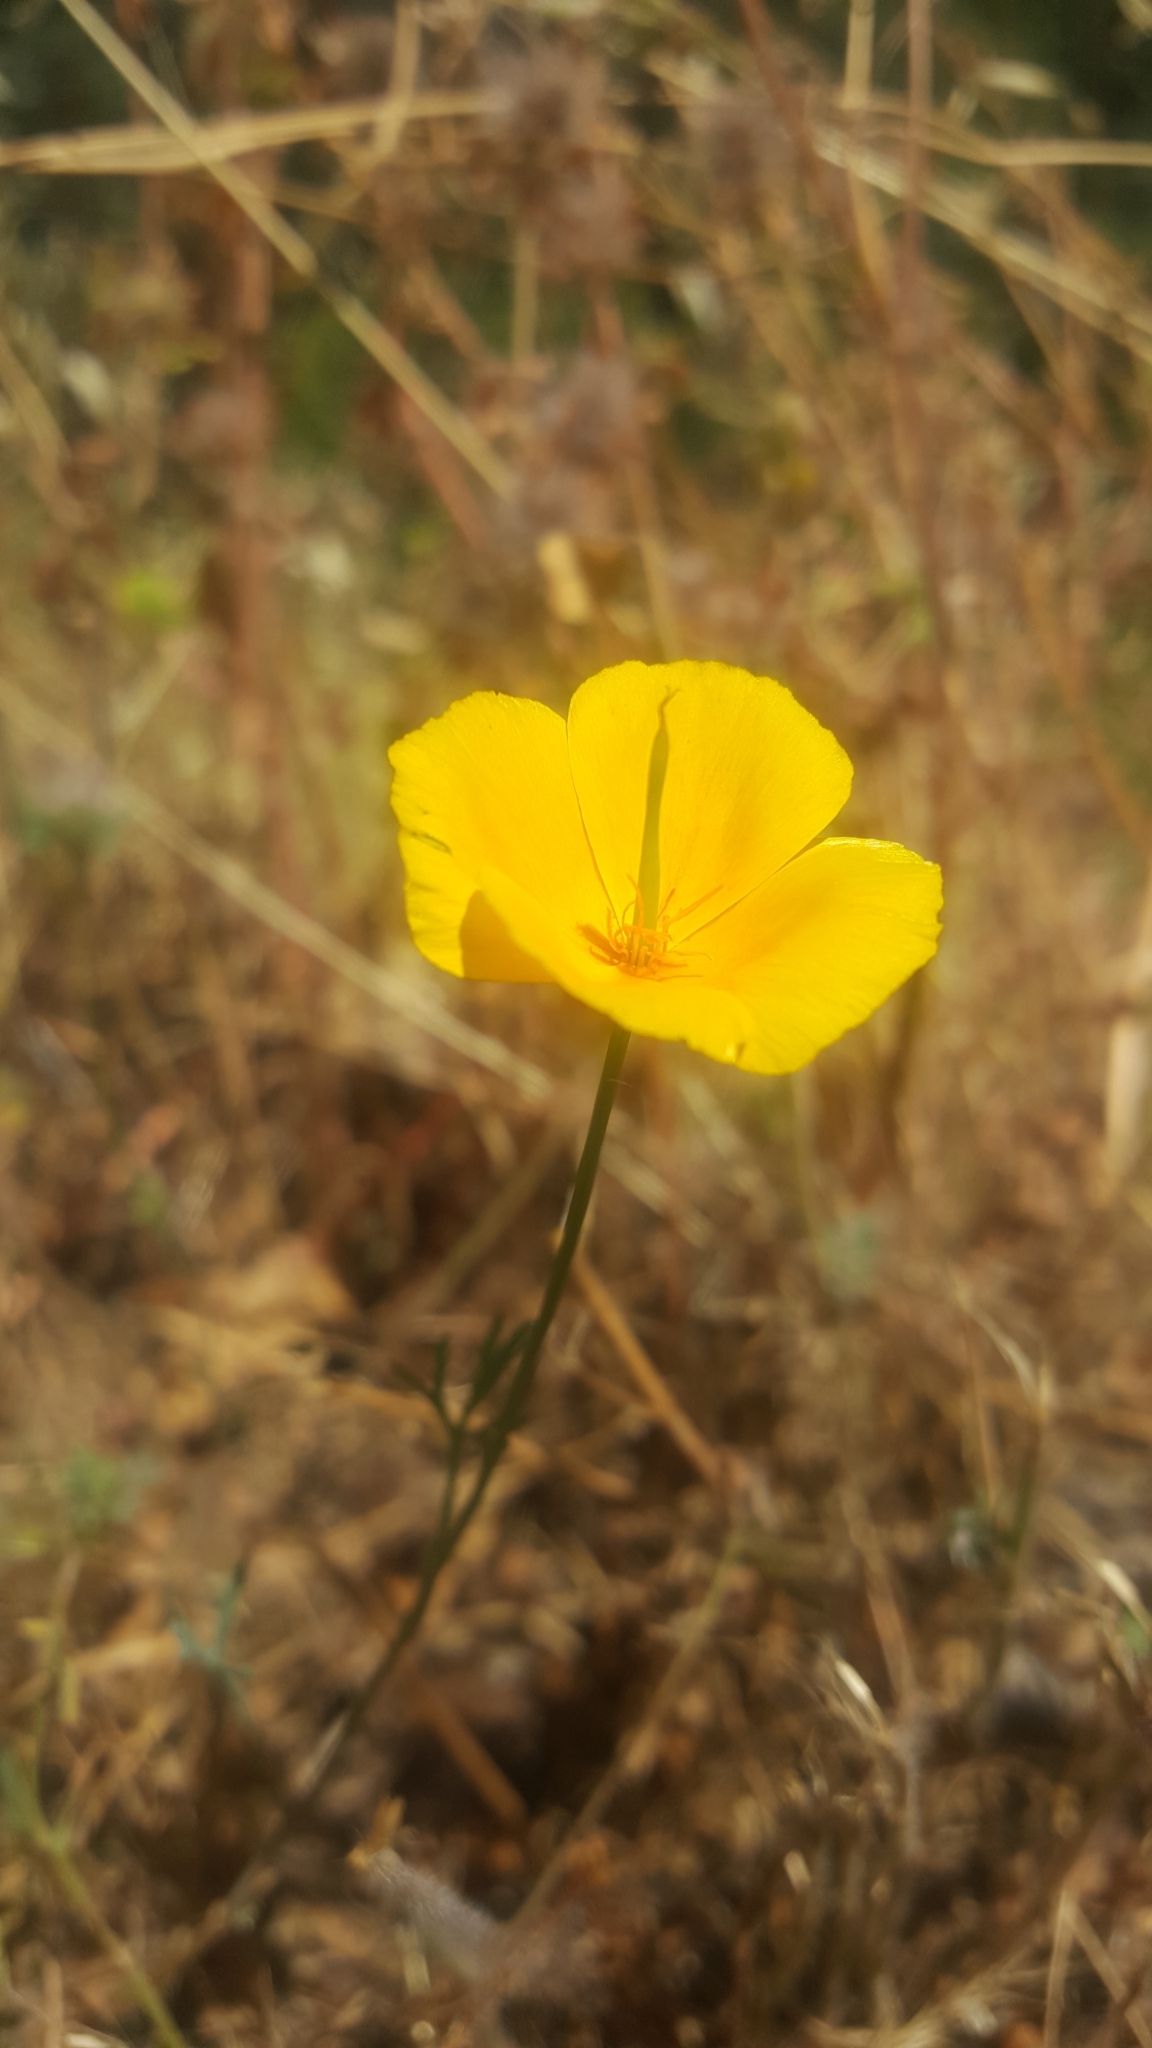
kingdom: Plantae
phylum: Tracheophyta
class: Magnoliopsida
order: Ranunculales
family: Papaveraceae
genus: Eschscholzia
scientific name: Eschscholzia lobbii
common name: Frying-pans
